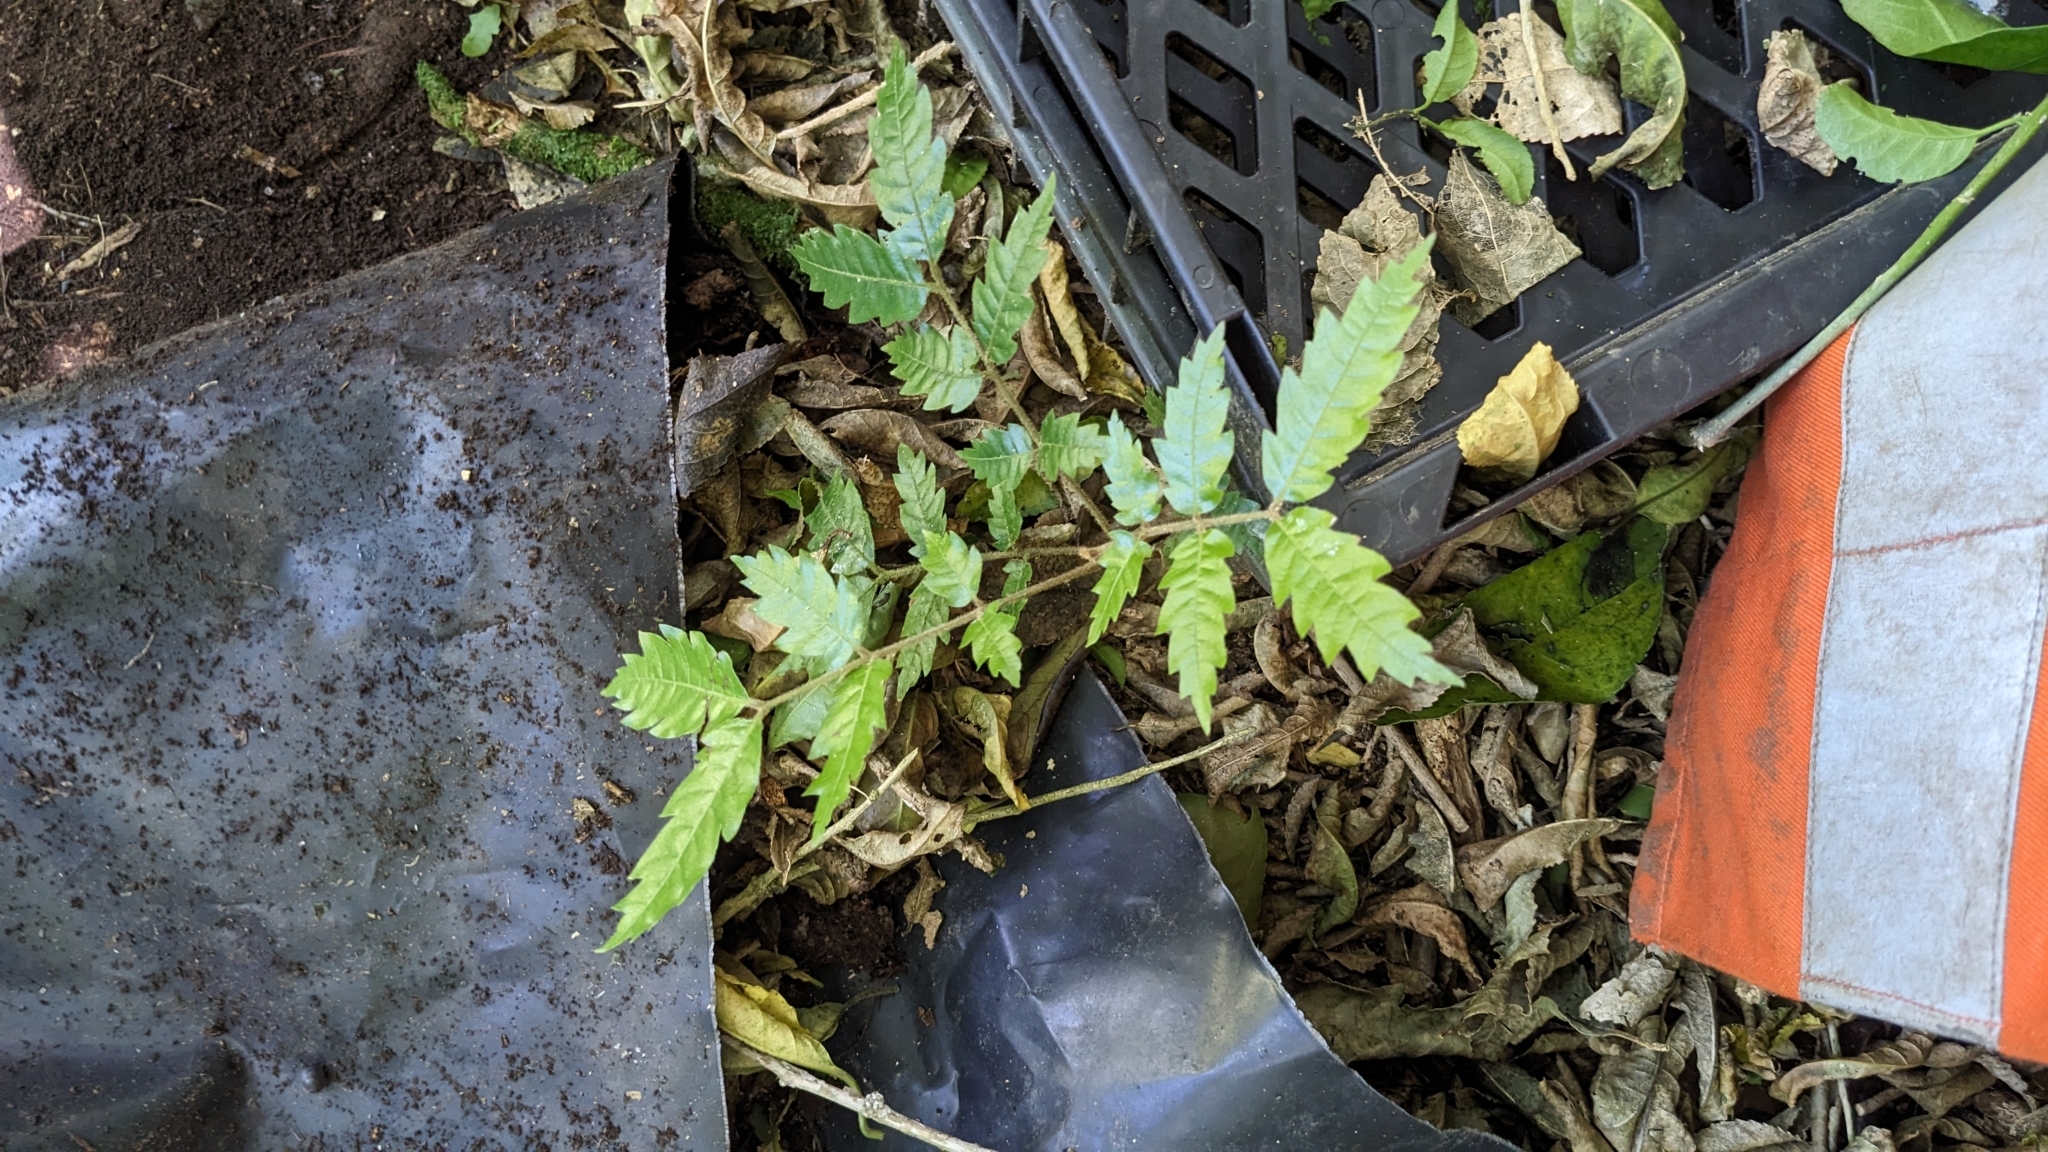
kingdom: Plantae
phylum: Tracheophyta
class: Magnoliopsida
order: Sapindales
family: Sapindaceae
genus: Alectryon
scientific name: Alectryon excelsus
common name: Three kings titoki
